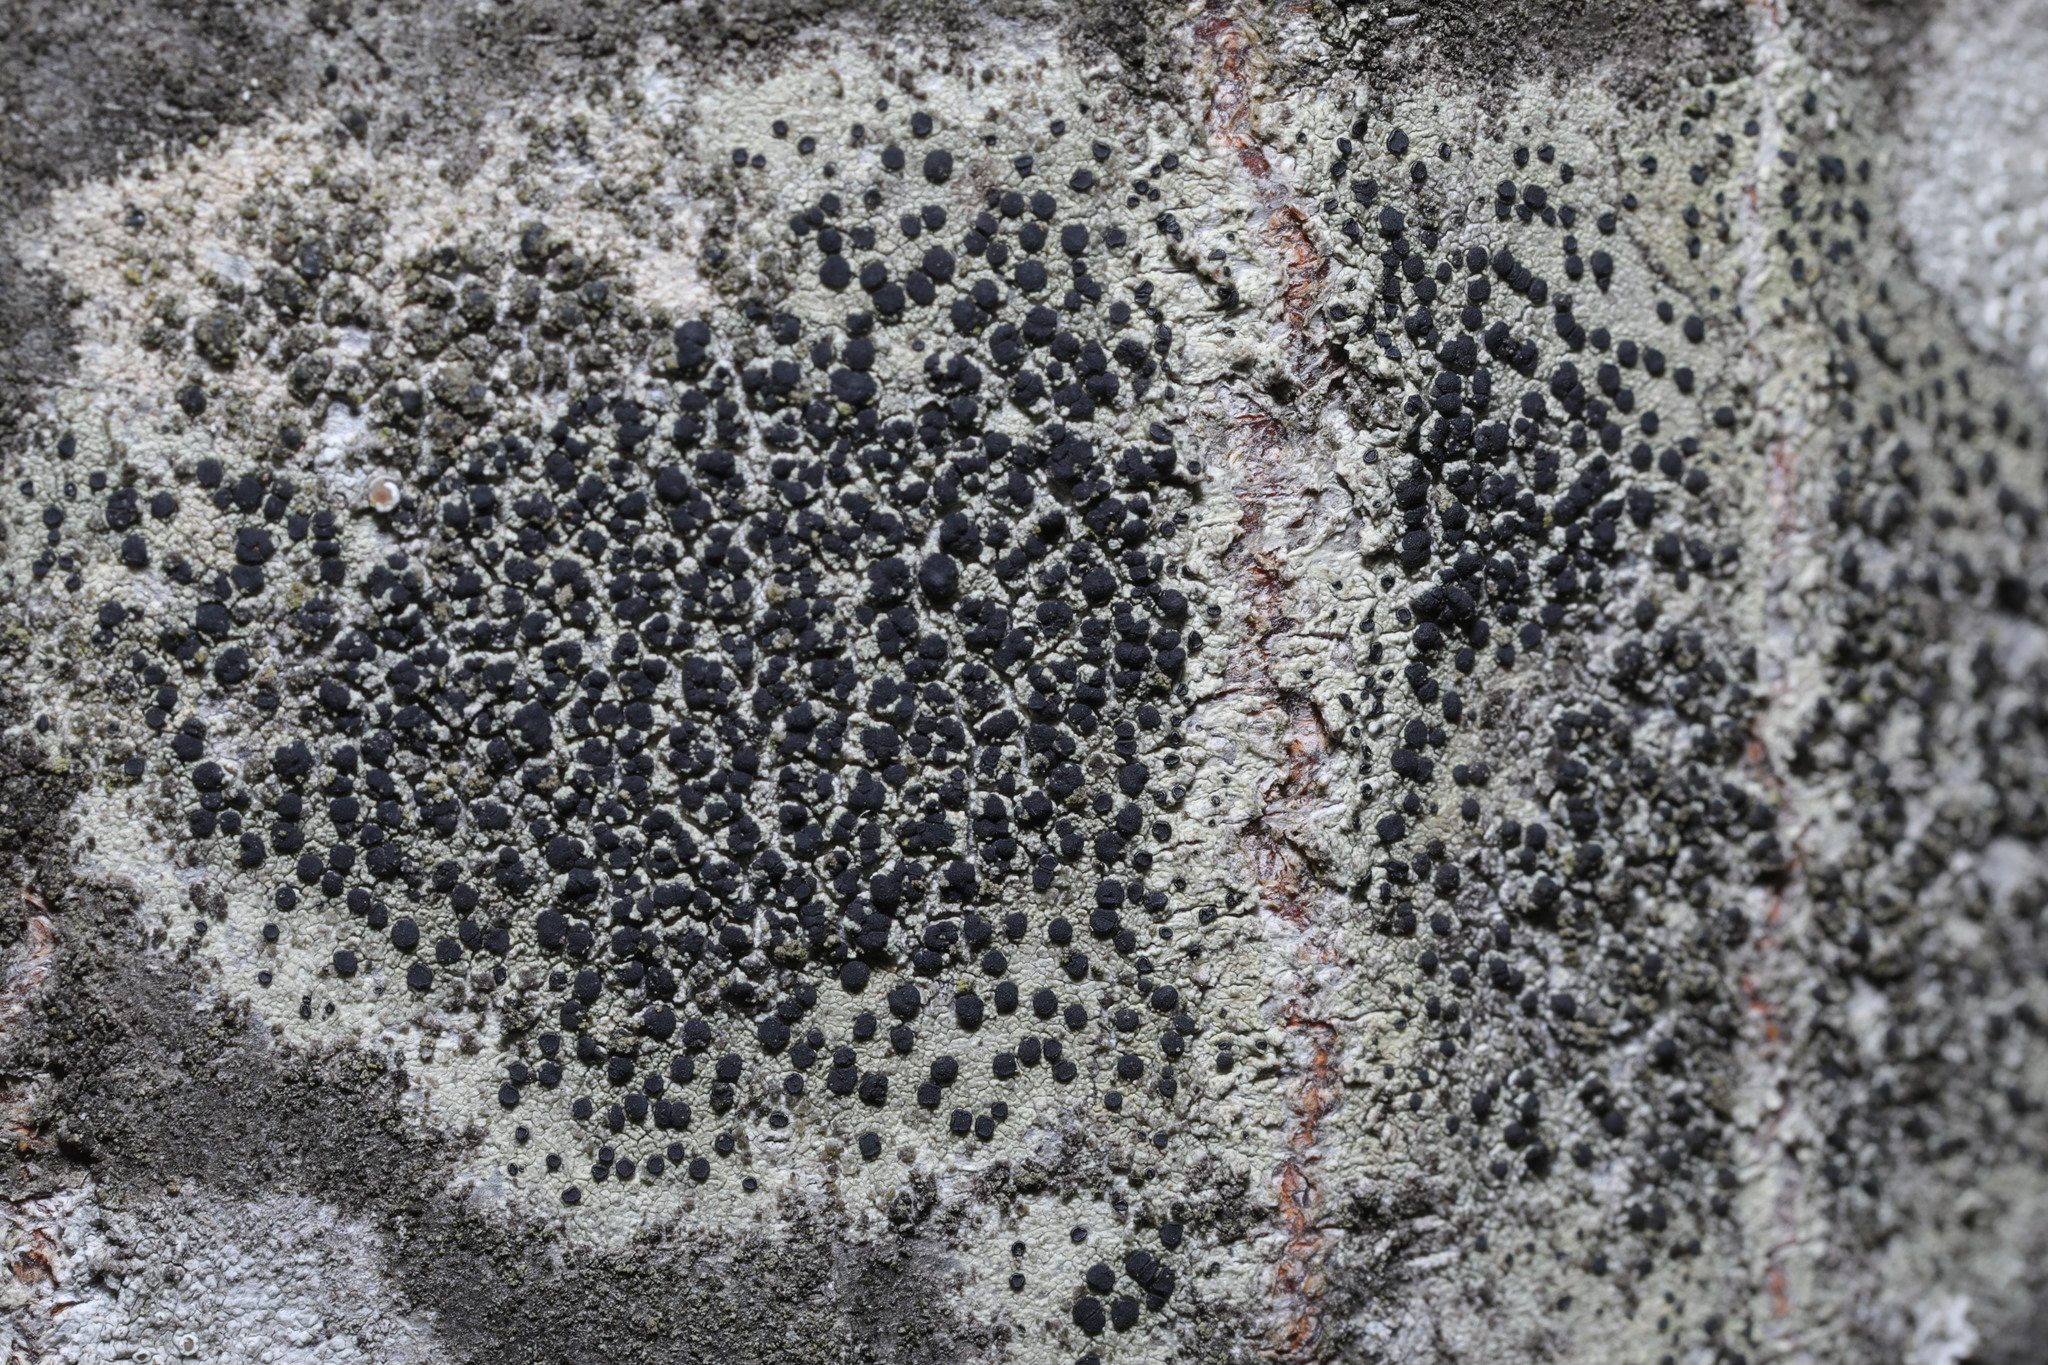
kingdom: Fungi
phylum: Ascomycota
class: Lecanoromycetes
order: Lecanorales
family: Lecanoraceae
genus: Lecidella
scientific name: Lecidella elaeochroma
